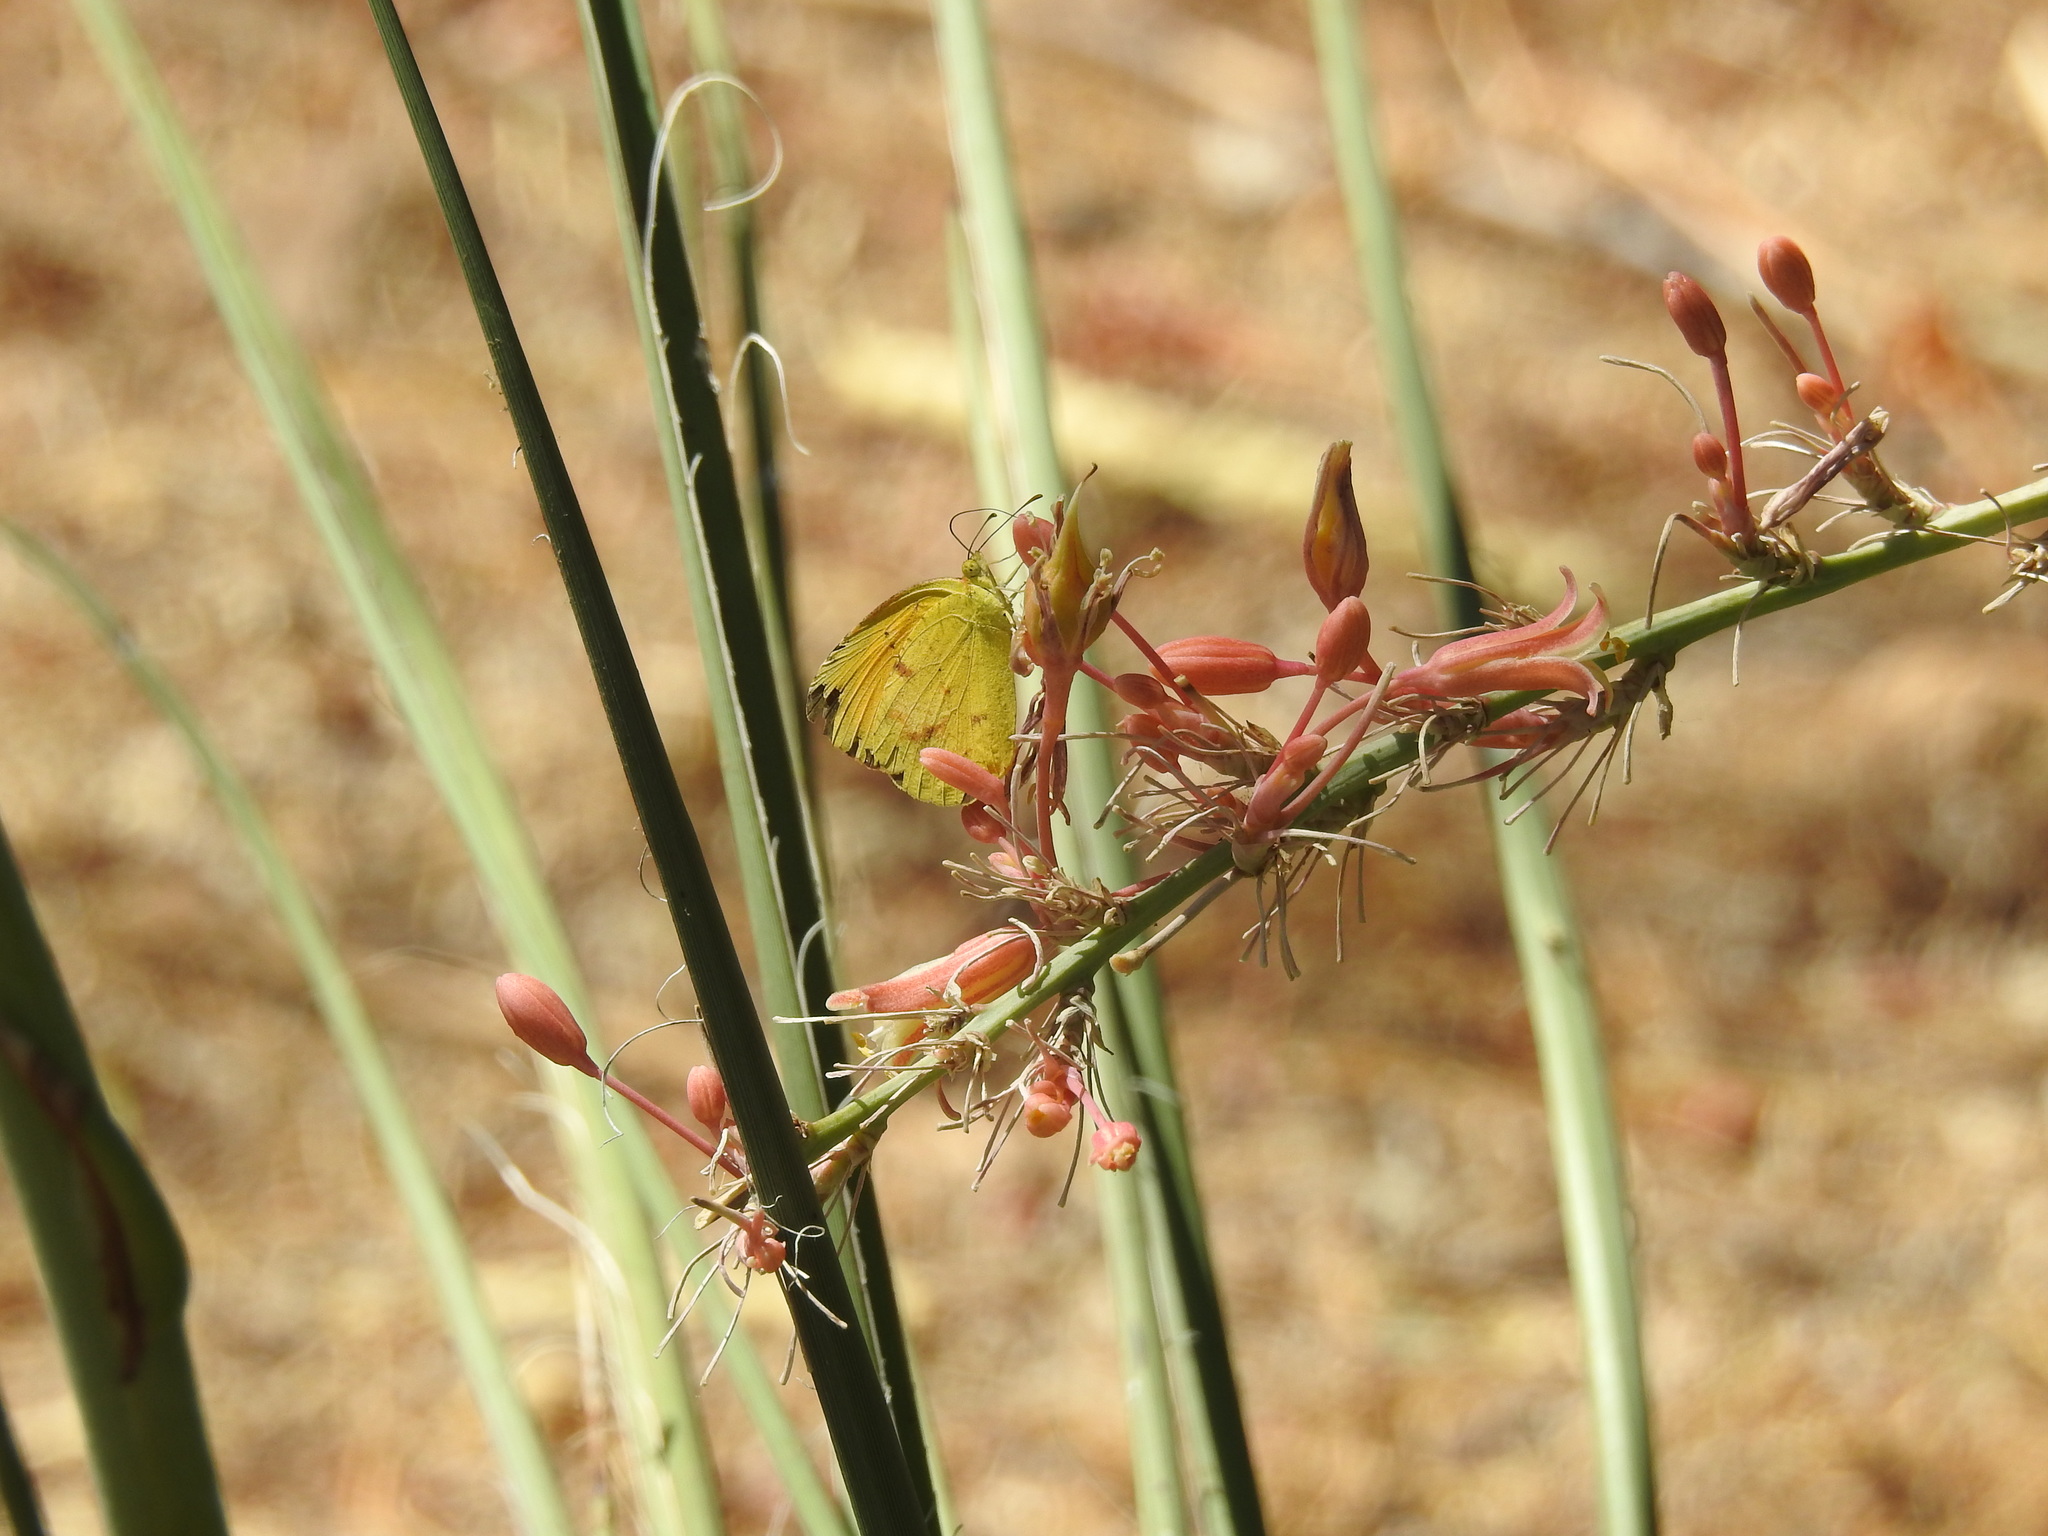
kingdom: Animalia
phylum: Arthropoda
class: Insecta
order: Lepidoptera
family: Pieridae
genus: Abaeis
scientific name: Abaeis nicippe
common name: Sleepy orange
